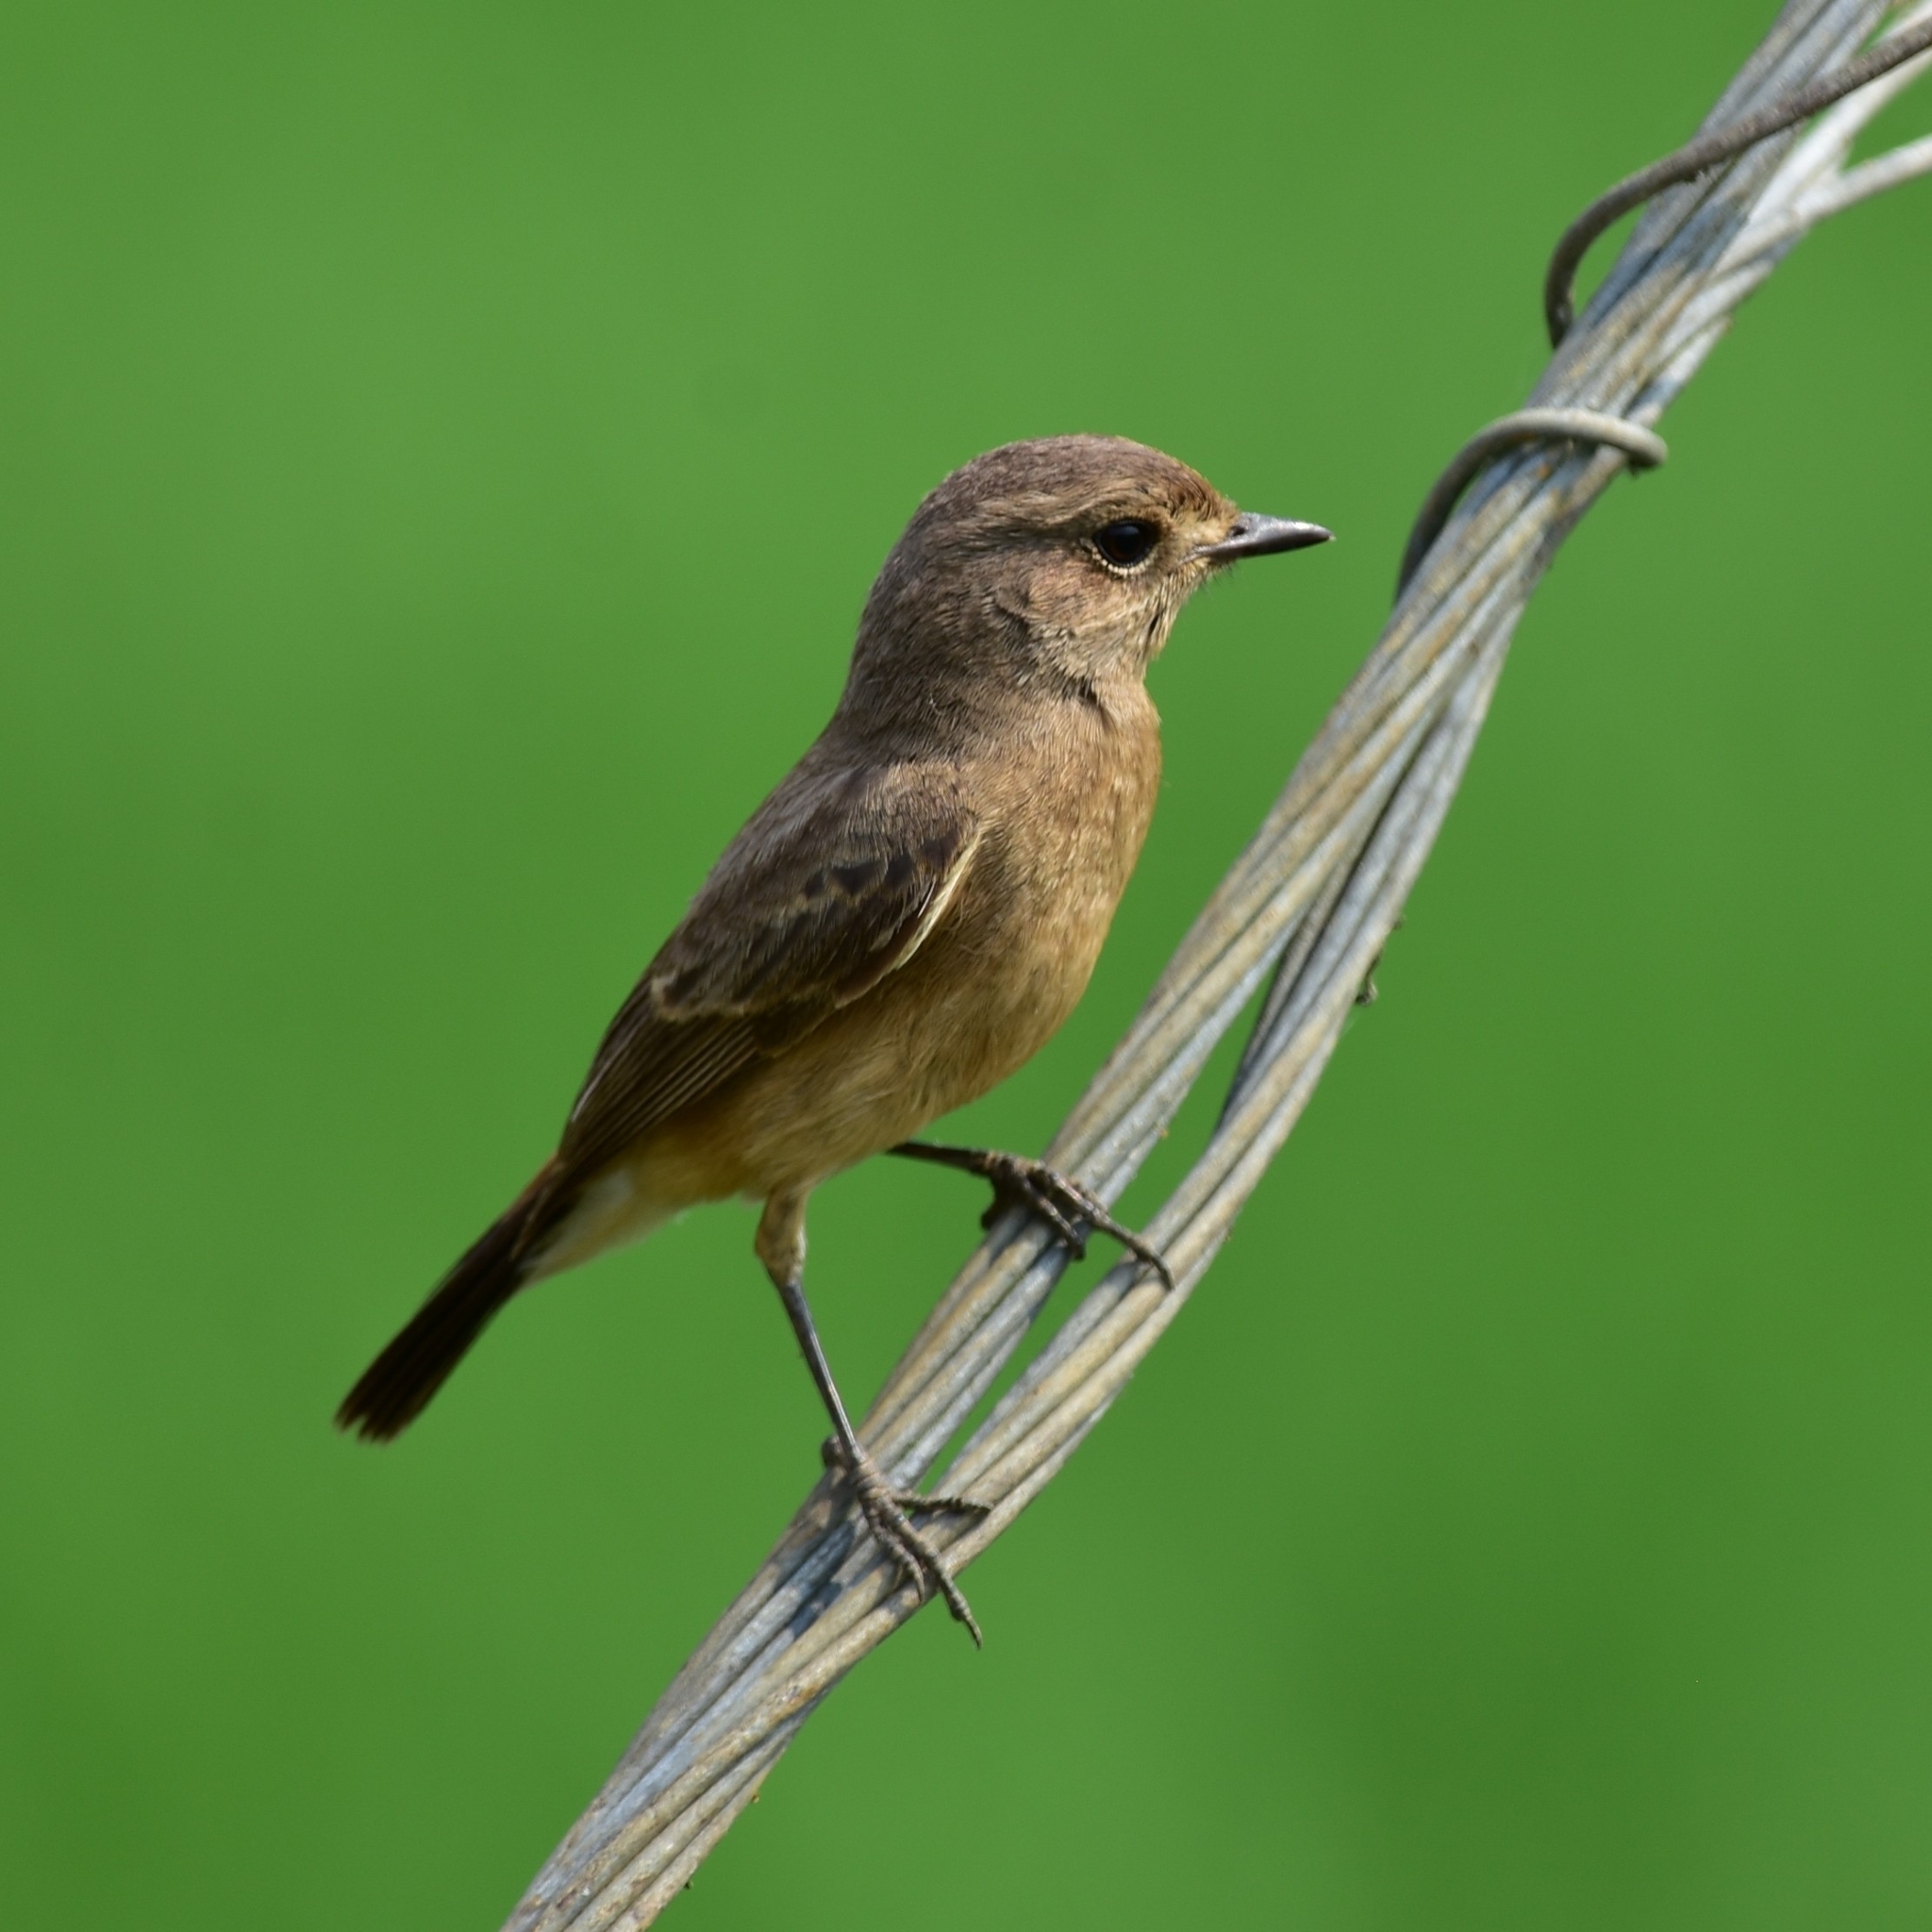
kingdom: Animalia
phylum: Chordata
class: Aves
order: Passeriformes
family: Muscicapidae
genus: Saxicola
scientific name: Saxicola caprata
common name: Pied bush chat
